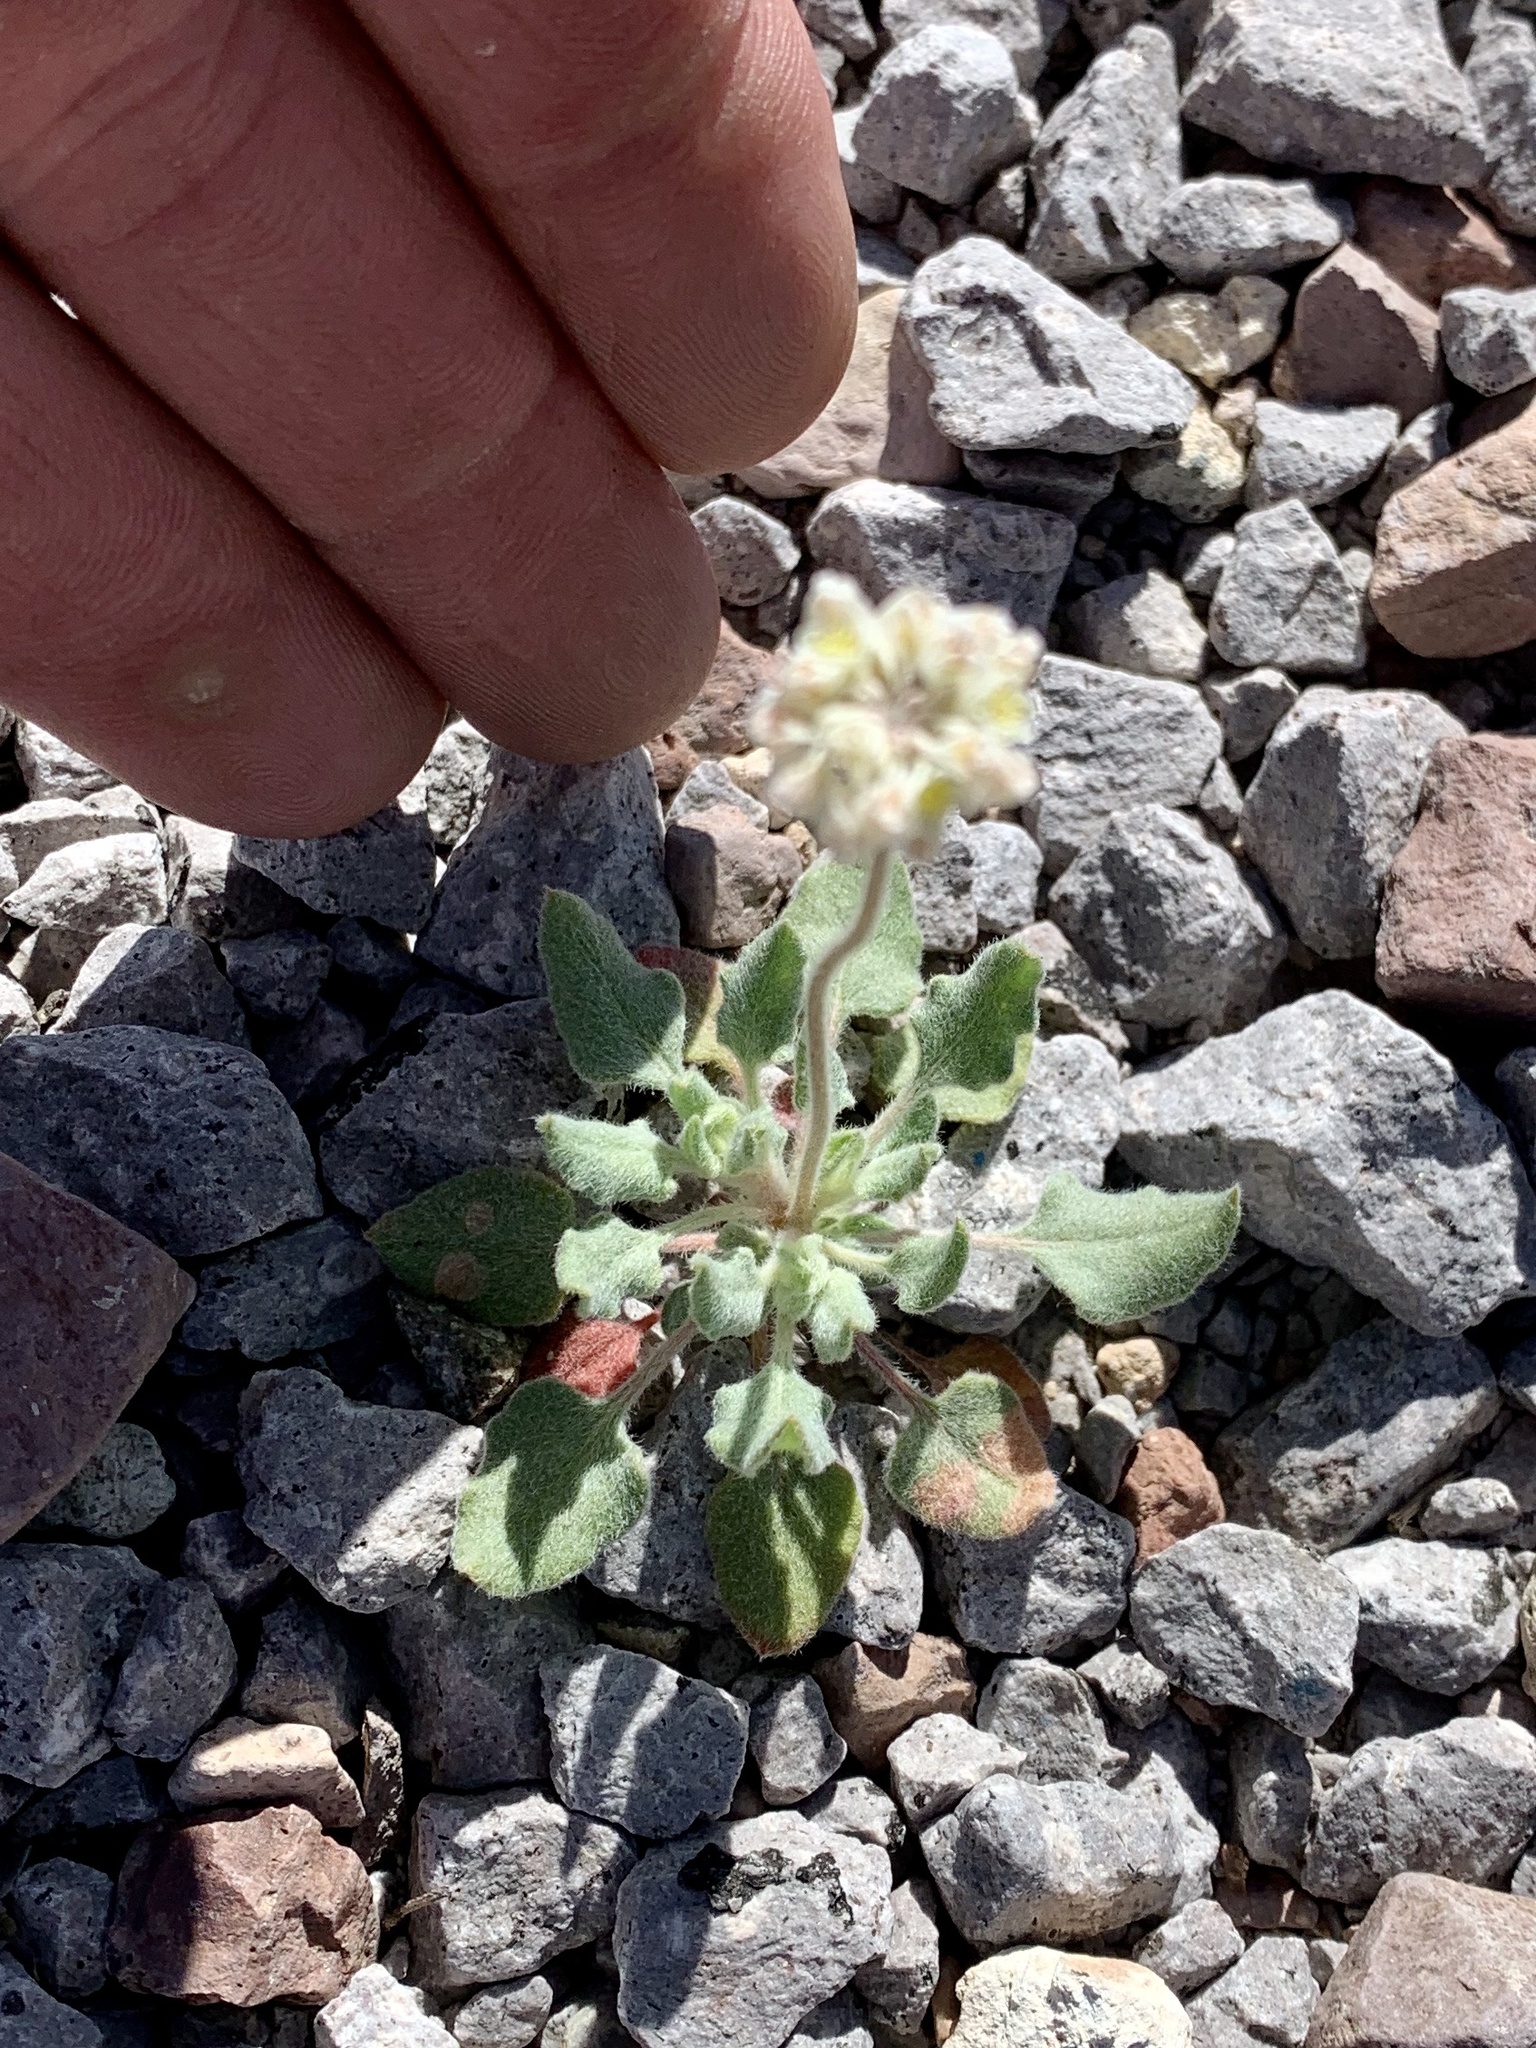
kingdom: Plantae
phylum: Tracheophyta
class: Magnoliopsida
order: Caryophyllales
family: Polygonaceae
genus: Eriogonum
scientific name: Eriogonum abertianum
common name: Abert's wild buckwheat
